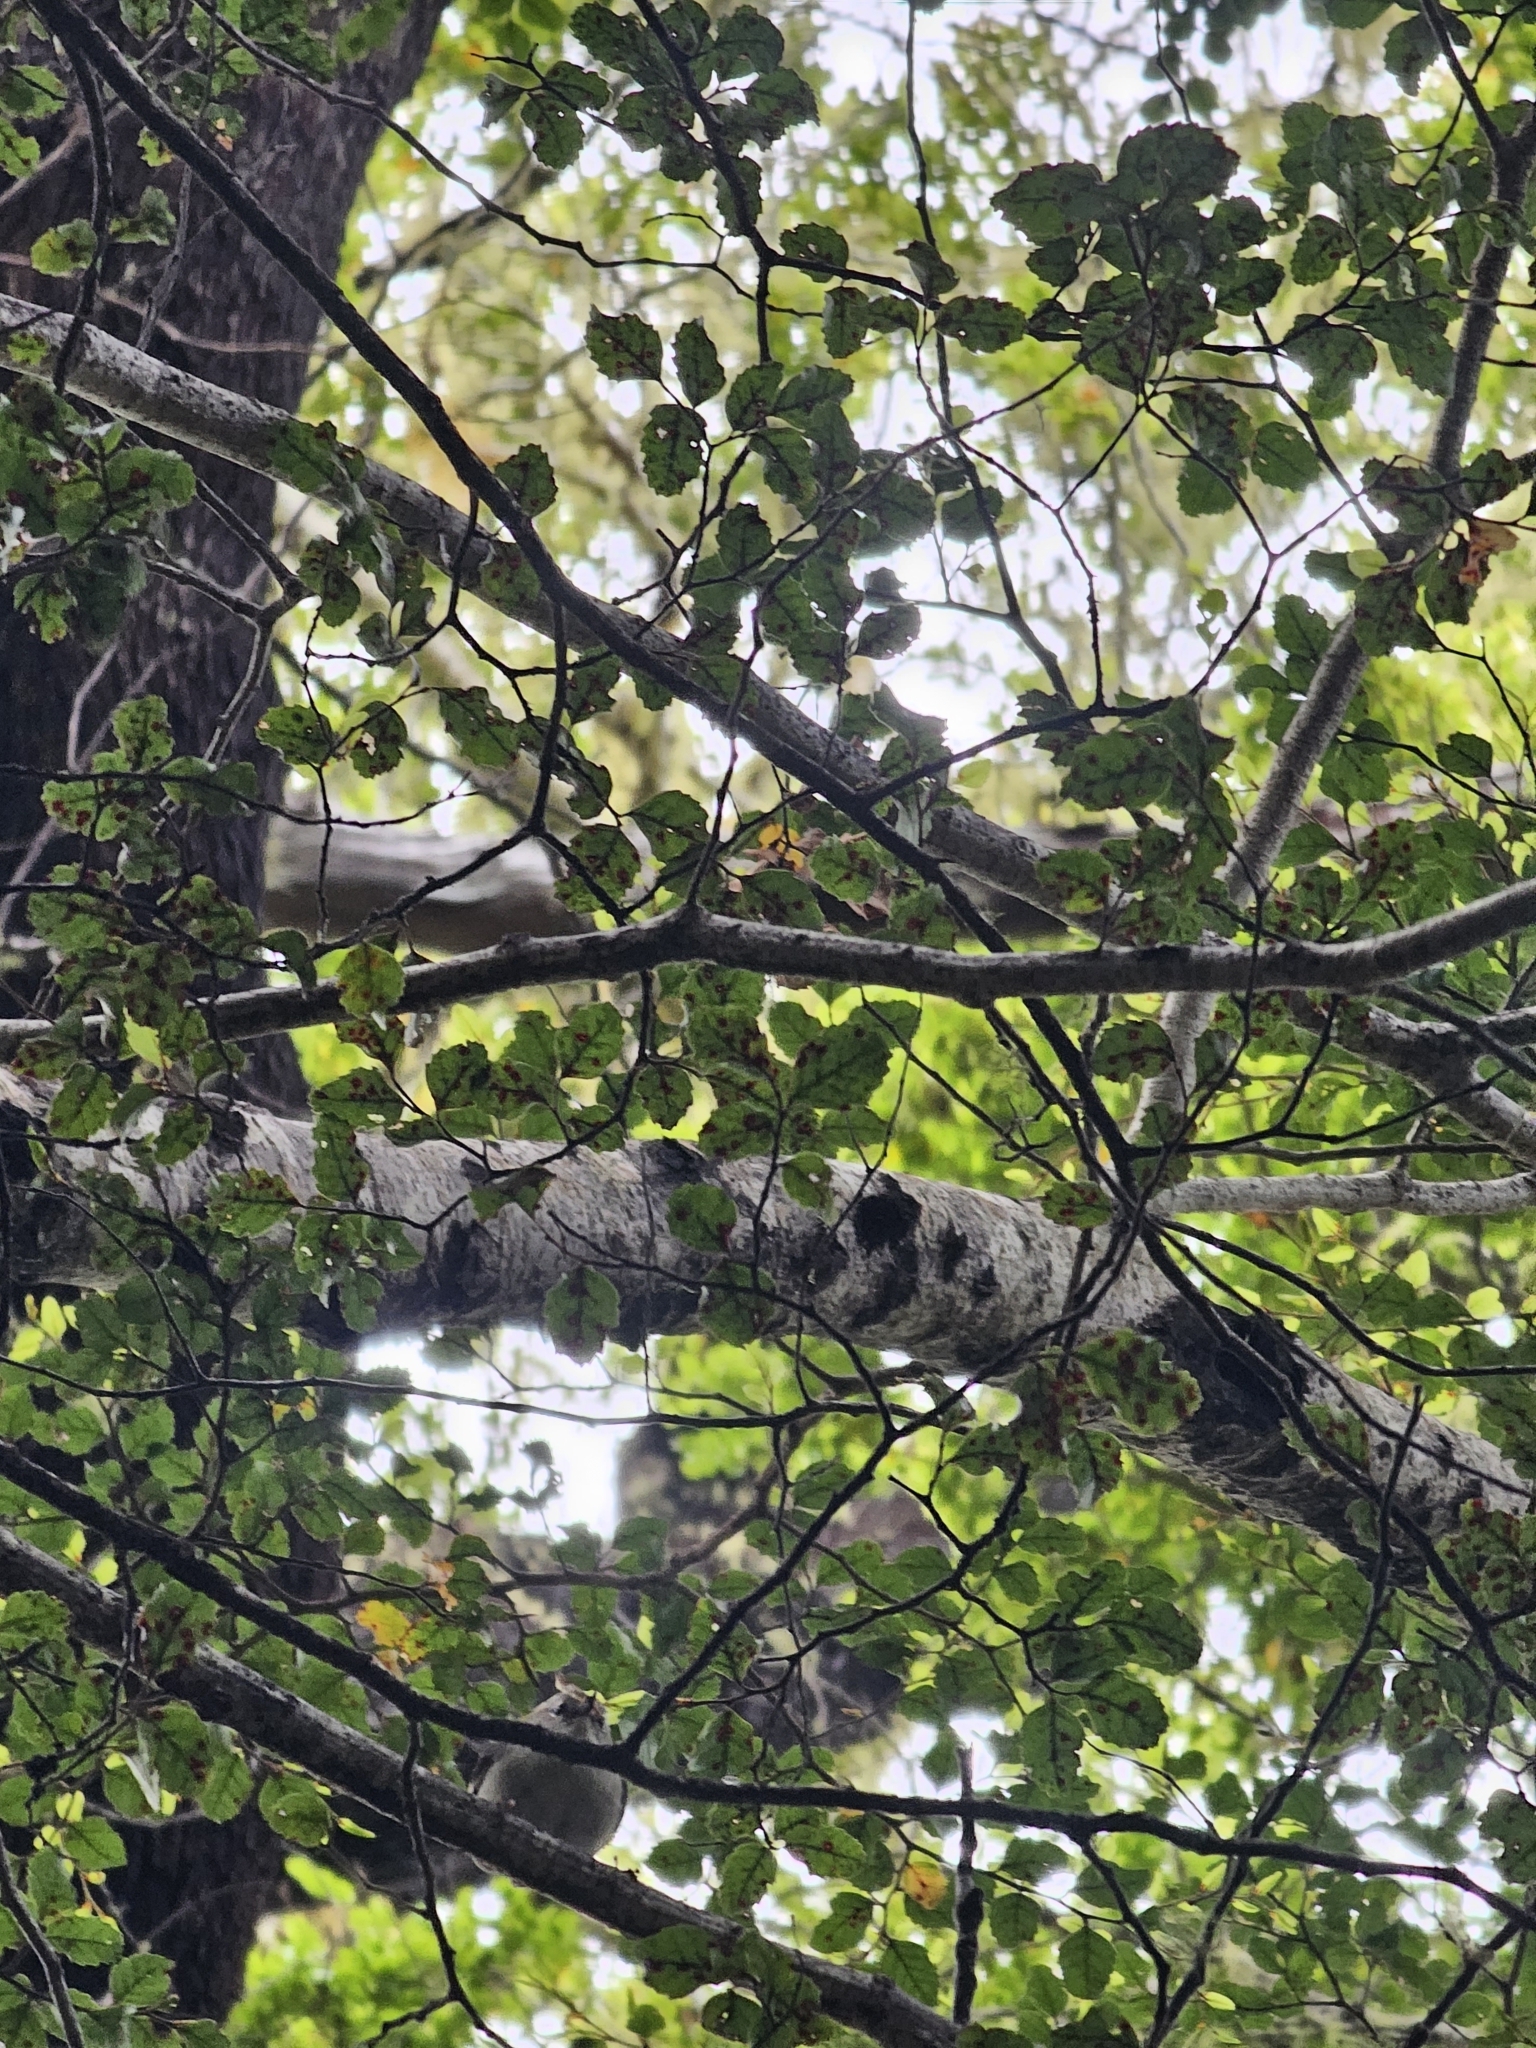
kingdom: Animalia
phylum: Chordata
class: Aves
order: Passeriformes
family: Acanthisittidae
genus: Acanthisitta
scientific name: Acanthisitta chloris
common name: Rifleman
